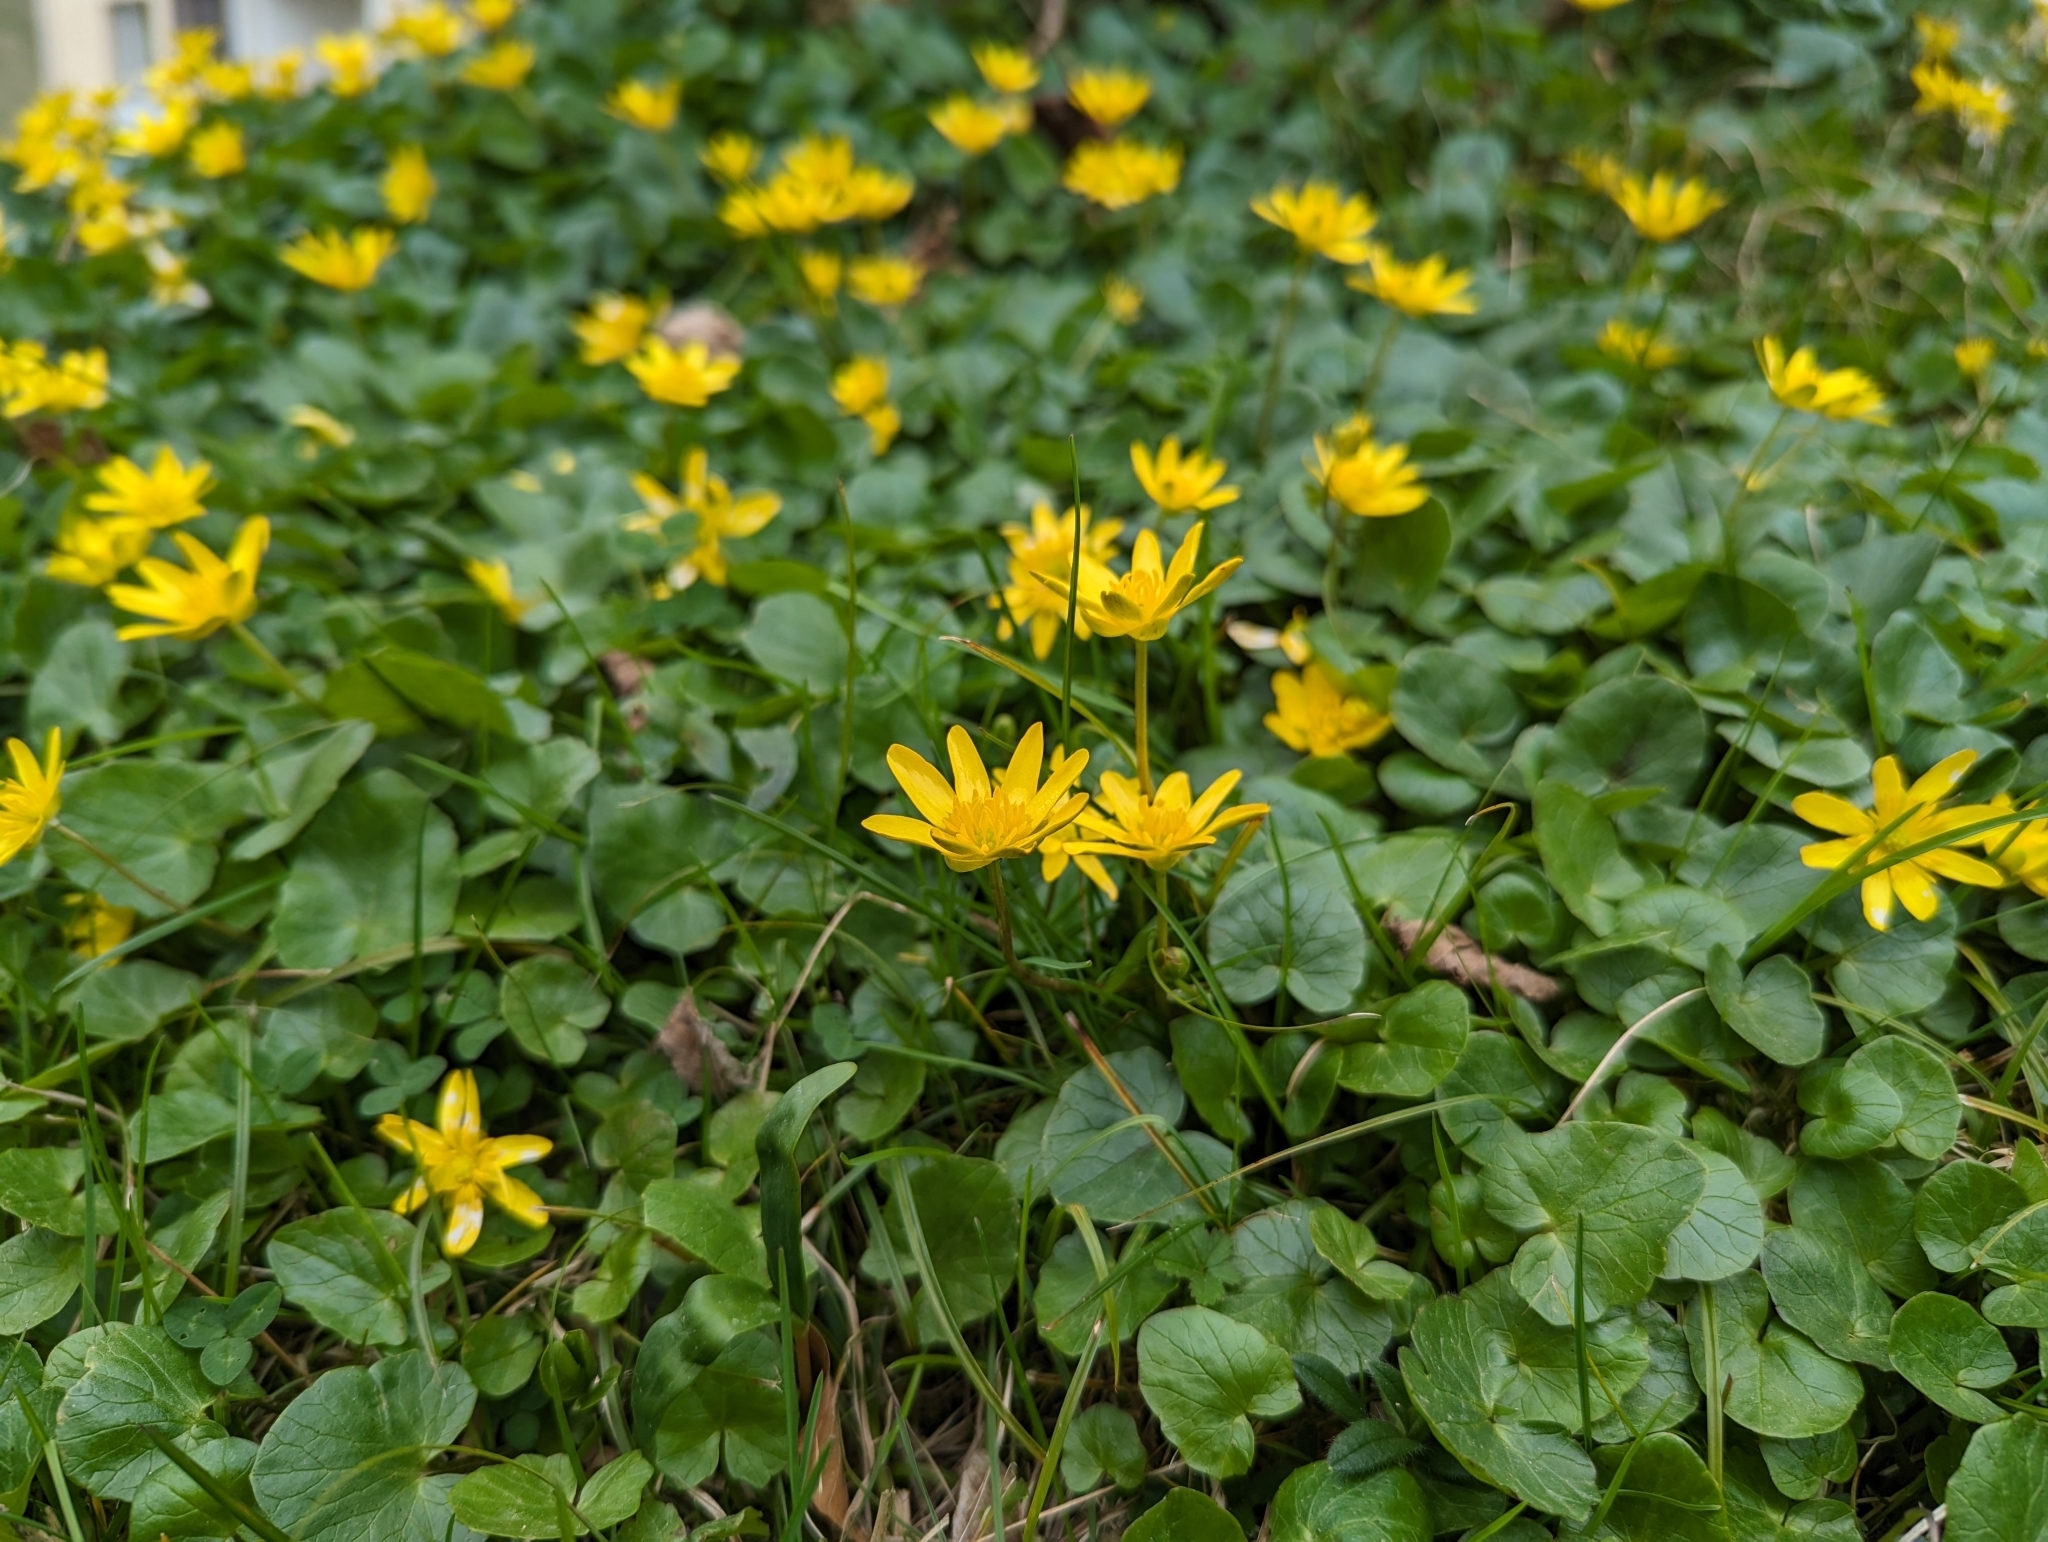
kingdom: Plantae
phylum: Tracheophyta
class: Magnoliopsida
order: Ranunculales
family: Ranunculaceae
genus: Ficaria
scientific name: Ficaria verna
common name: Lesser celandine
